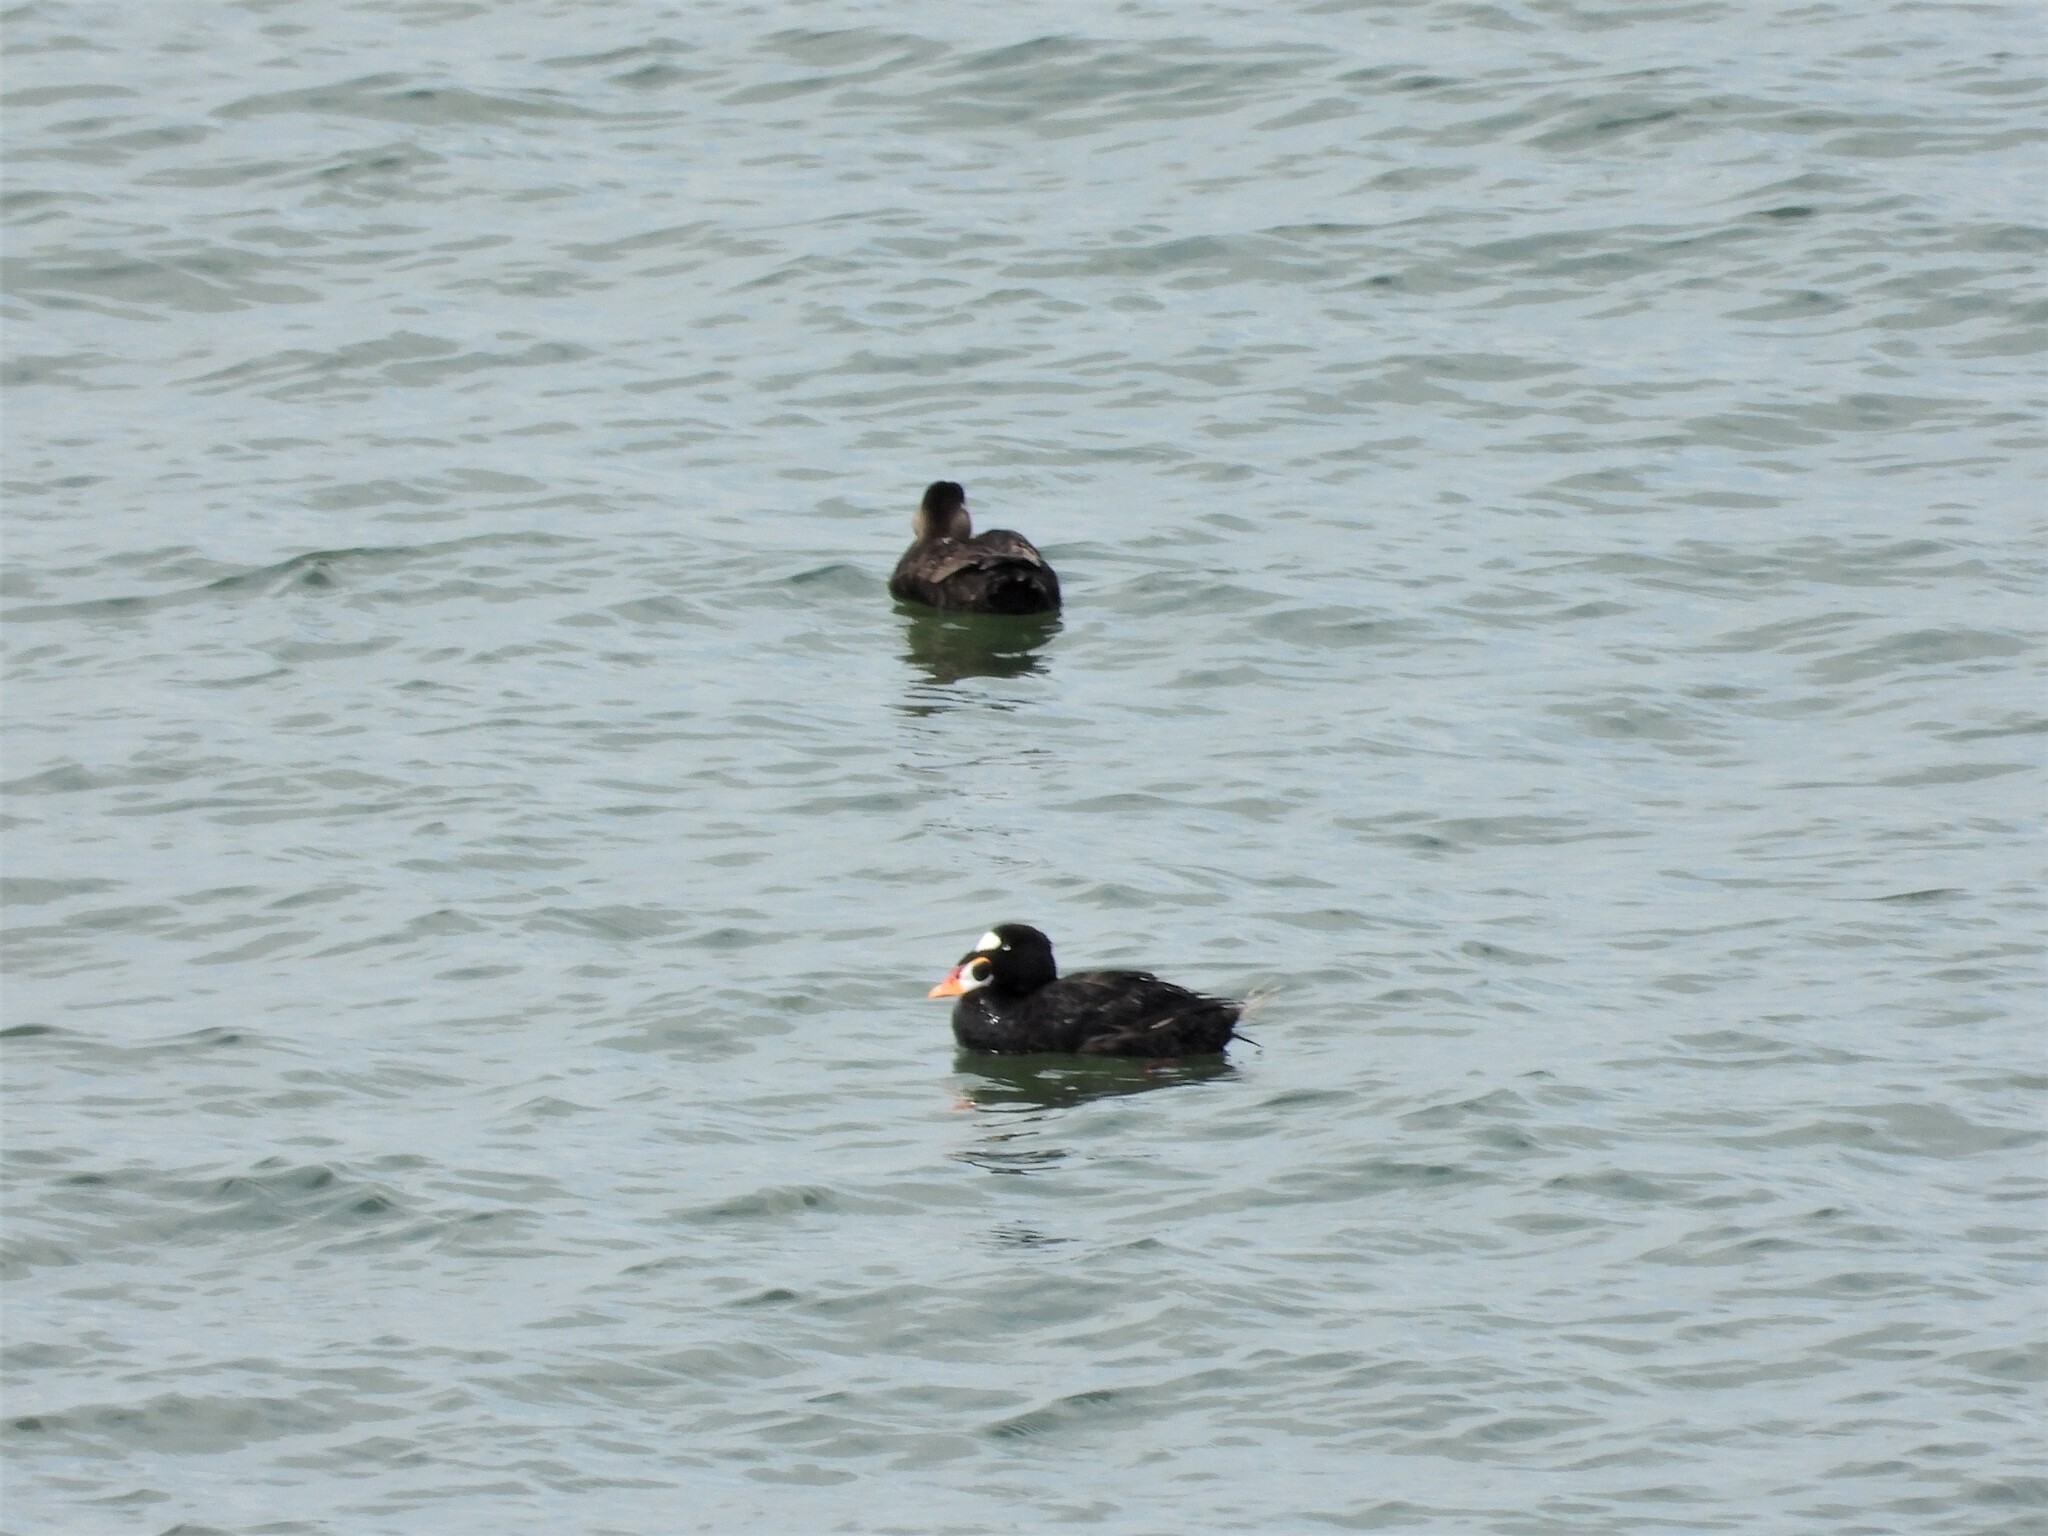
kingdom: Animalia
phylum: Chordata
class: Aves
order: Anseriformes
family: Anatidae
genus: Melanitta
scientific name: Melanitta perspicillata
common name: Surf scoter
